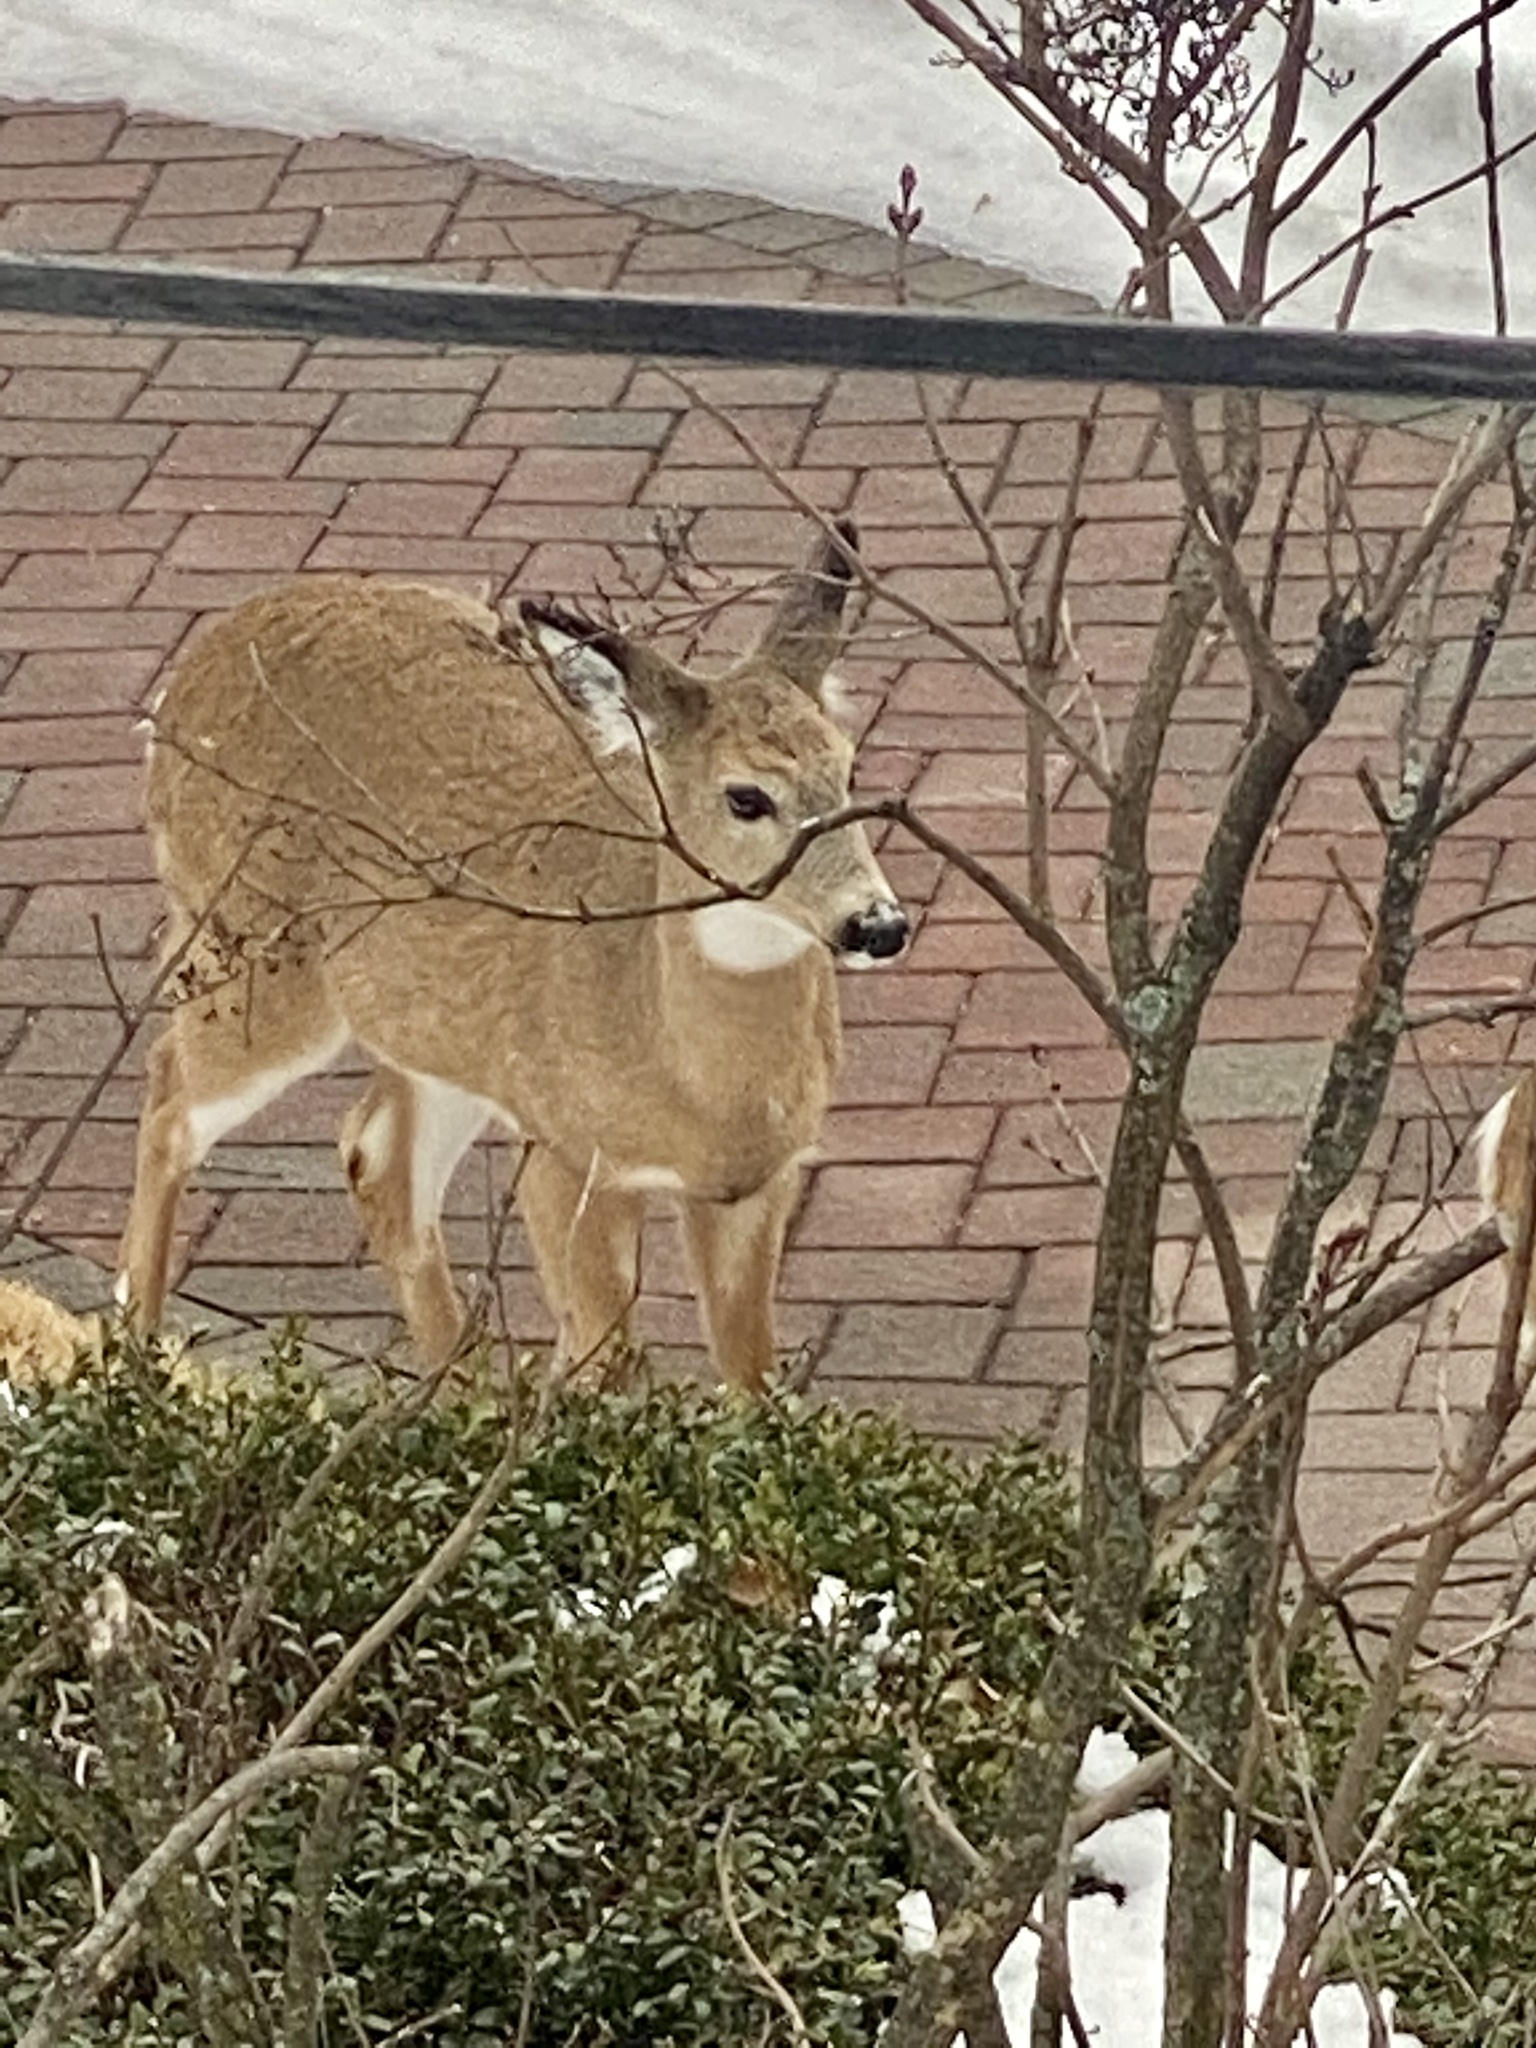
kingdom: Animalia
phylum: Chordata
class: Mammalia
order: Artiodactyla
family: Cervidae
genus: Odocoileus
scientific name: Odocoileus virginianus
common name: White-tailed deer
